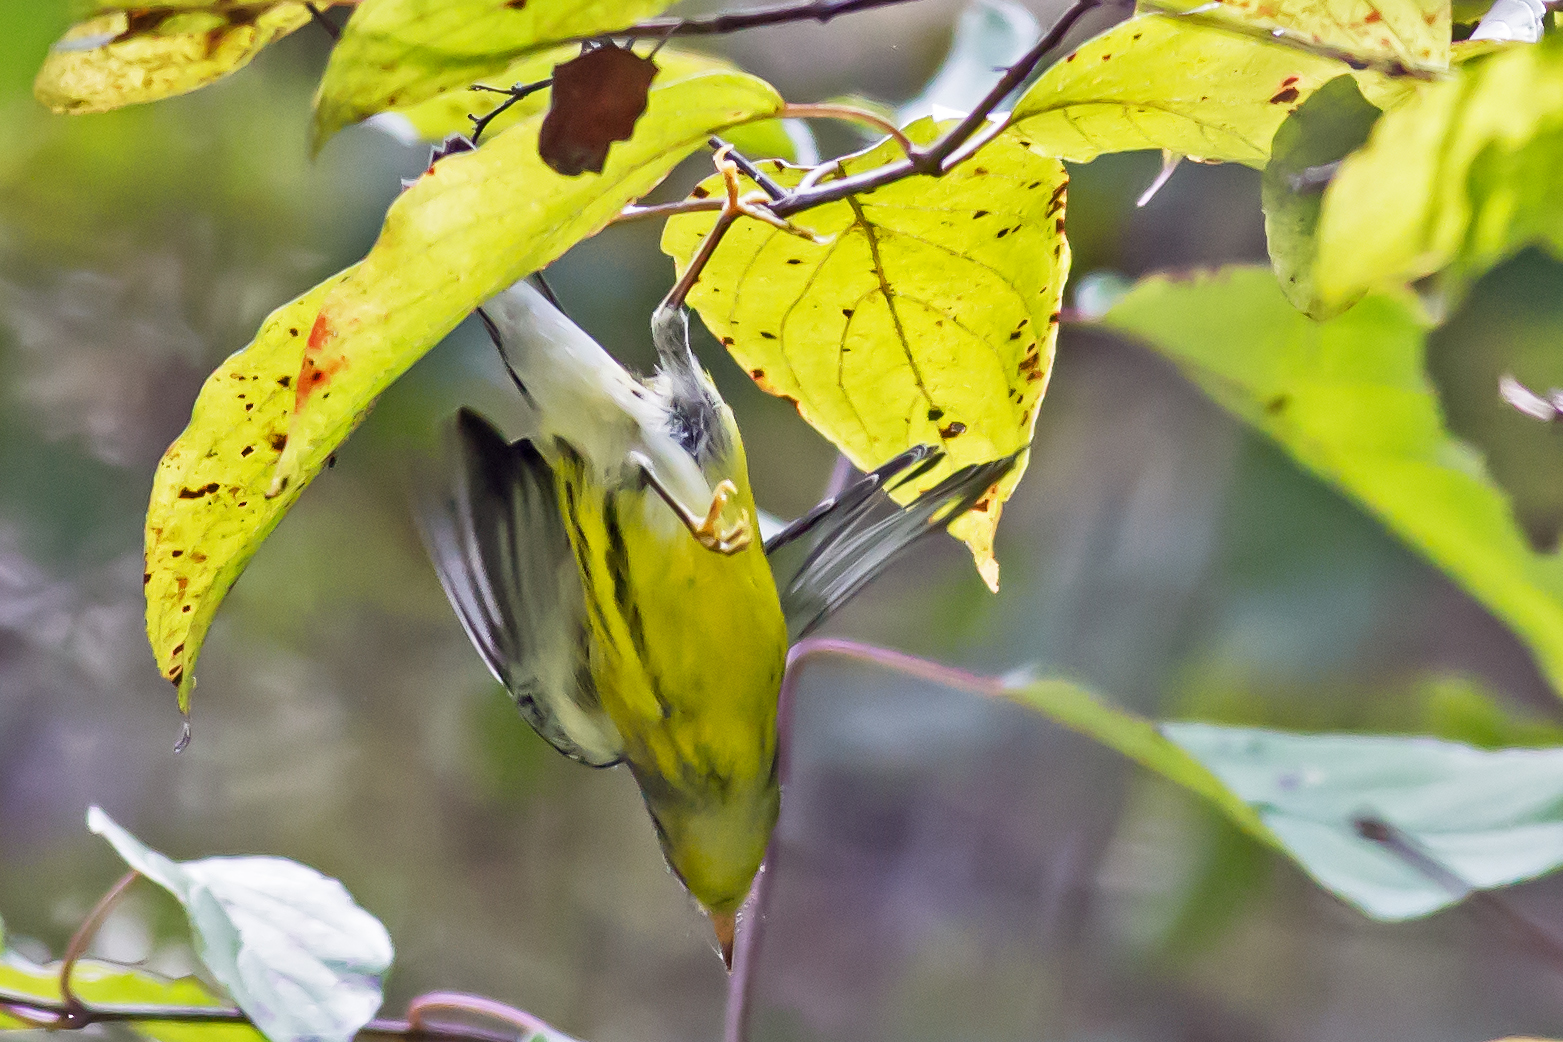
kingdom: Animalia
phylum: Chordata
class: Aves
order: Passeriformes
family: Parulidae
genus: Setophaga
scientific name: Setophaga magnolia
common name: Magnolia warbler
